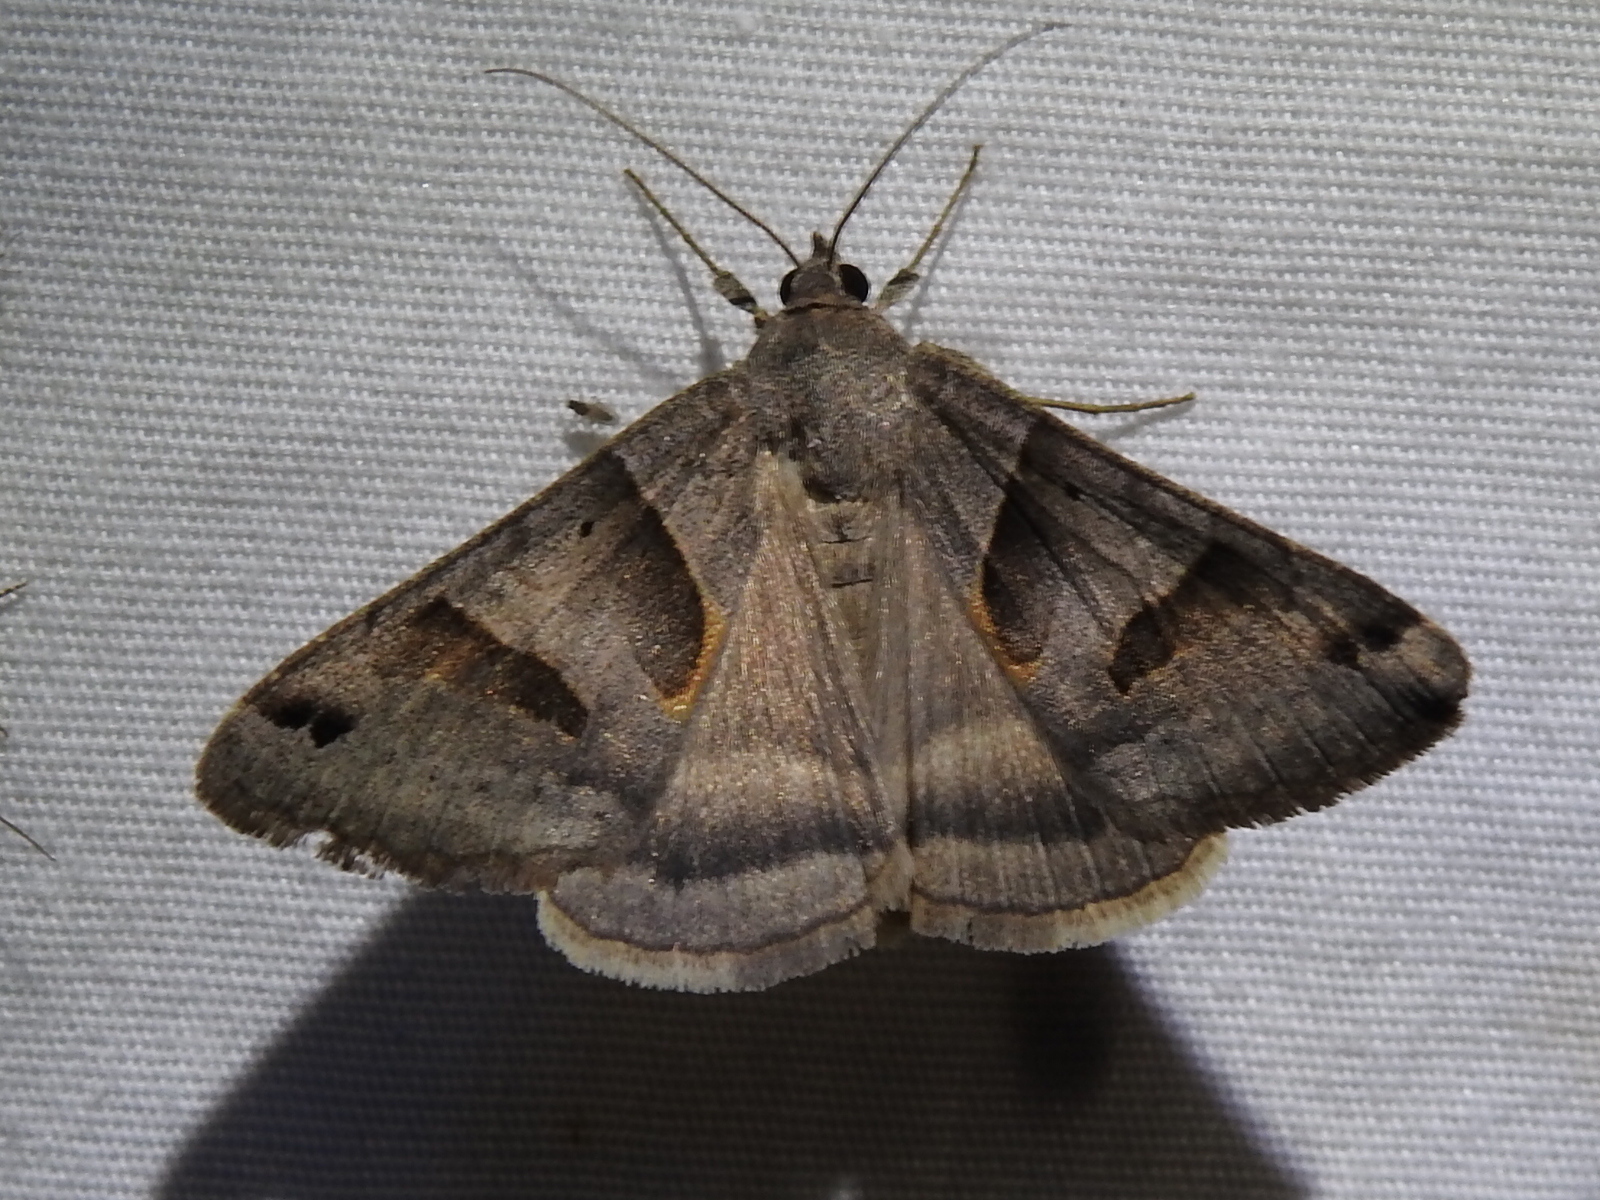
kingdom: Animalia
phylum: Arthropoda
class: Insecta
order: Lepidoptera
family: Erebidae
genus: Caenurgina
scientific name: Caenurgina erechtea
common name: Forage looper moth
